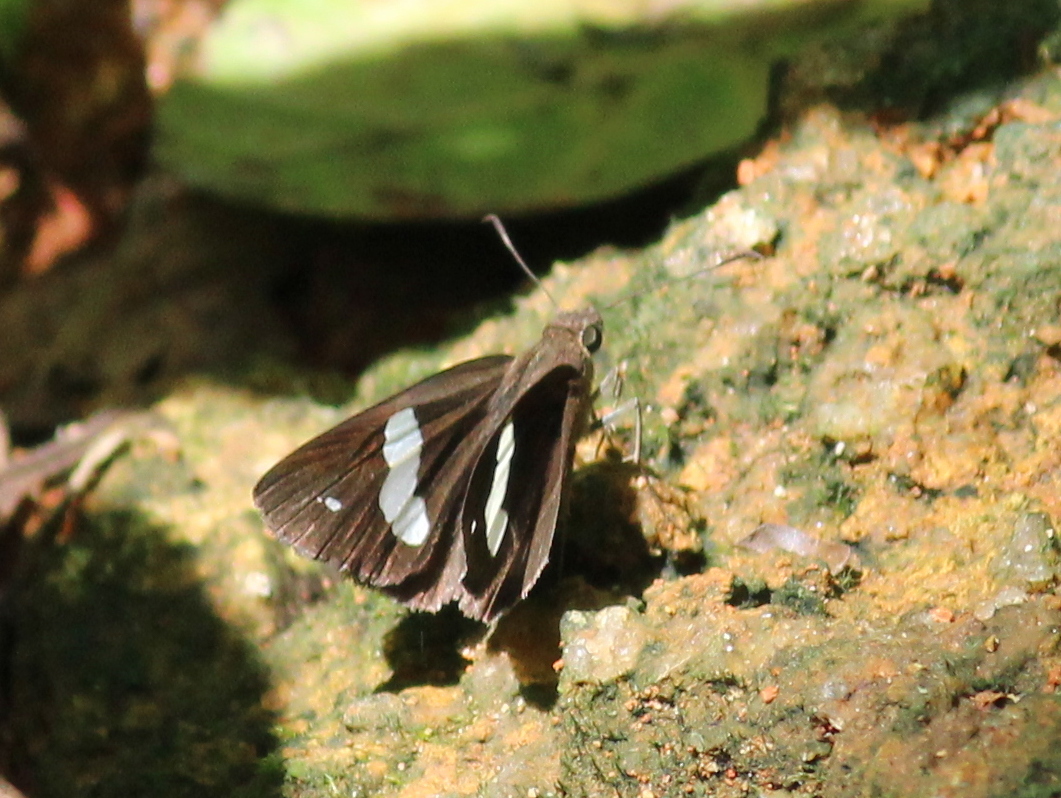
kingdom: Animalia
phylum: Arthropoda
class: Insecta
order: Lepidoptera
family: Hesperiidae
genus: Notocrypta
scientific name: Notocrypta paralysos
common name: Common banded demon
